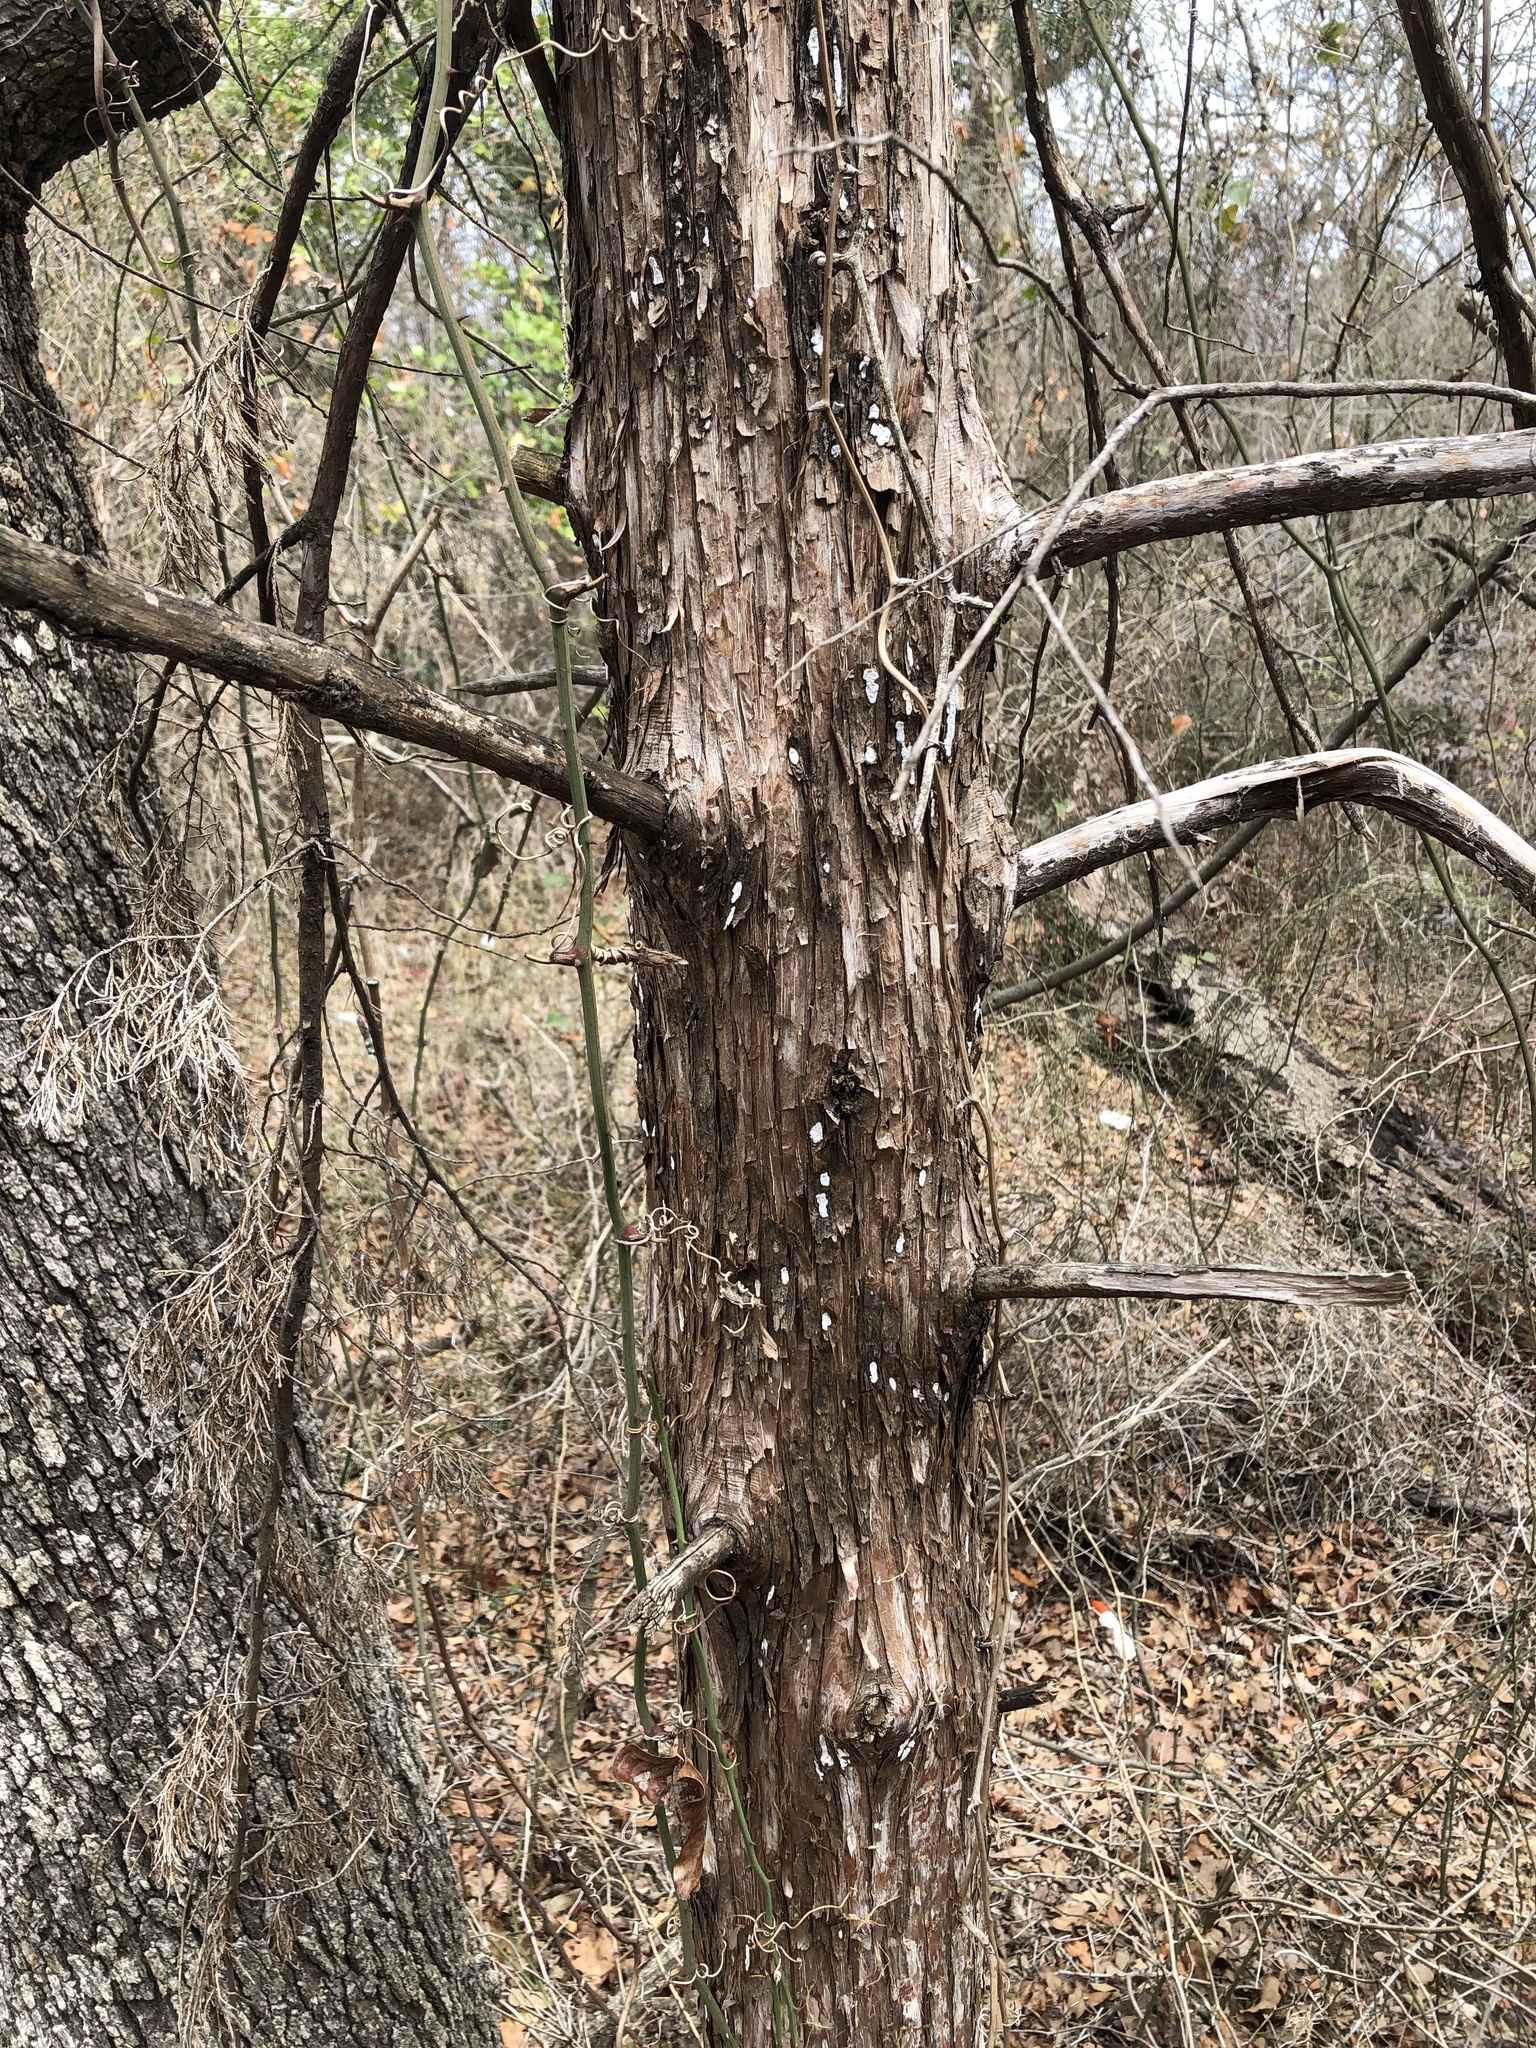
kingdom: Fungi
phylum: Basidiomycota
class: Agaricomycetes
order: Agaricales
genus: Dendrothele
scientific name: Dendrothele nivosa
